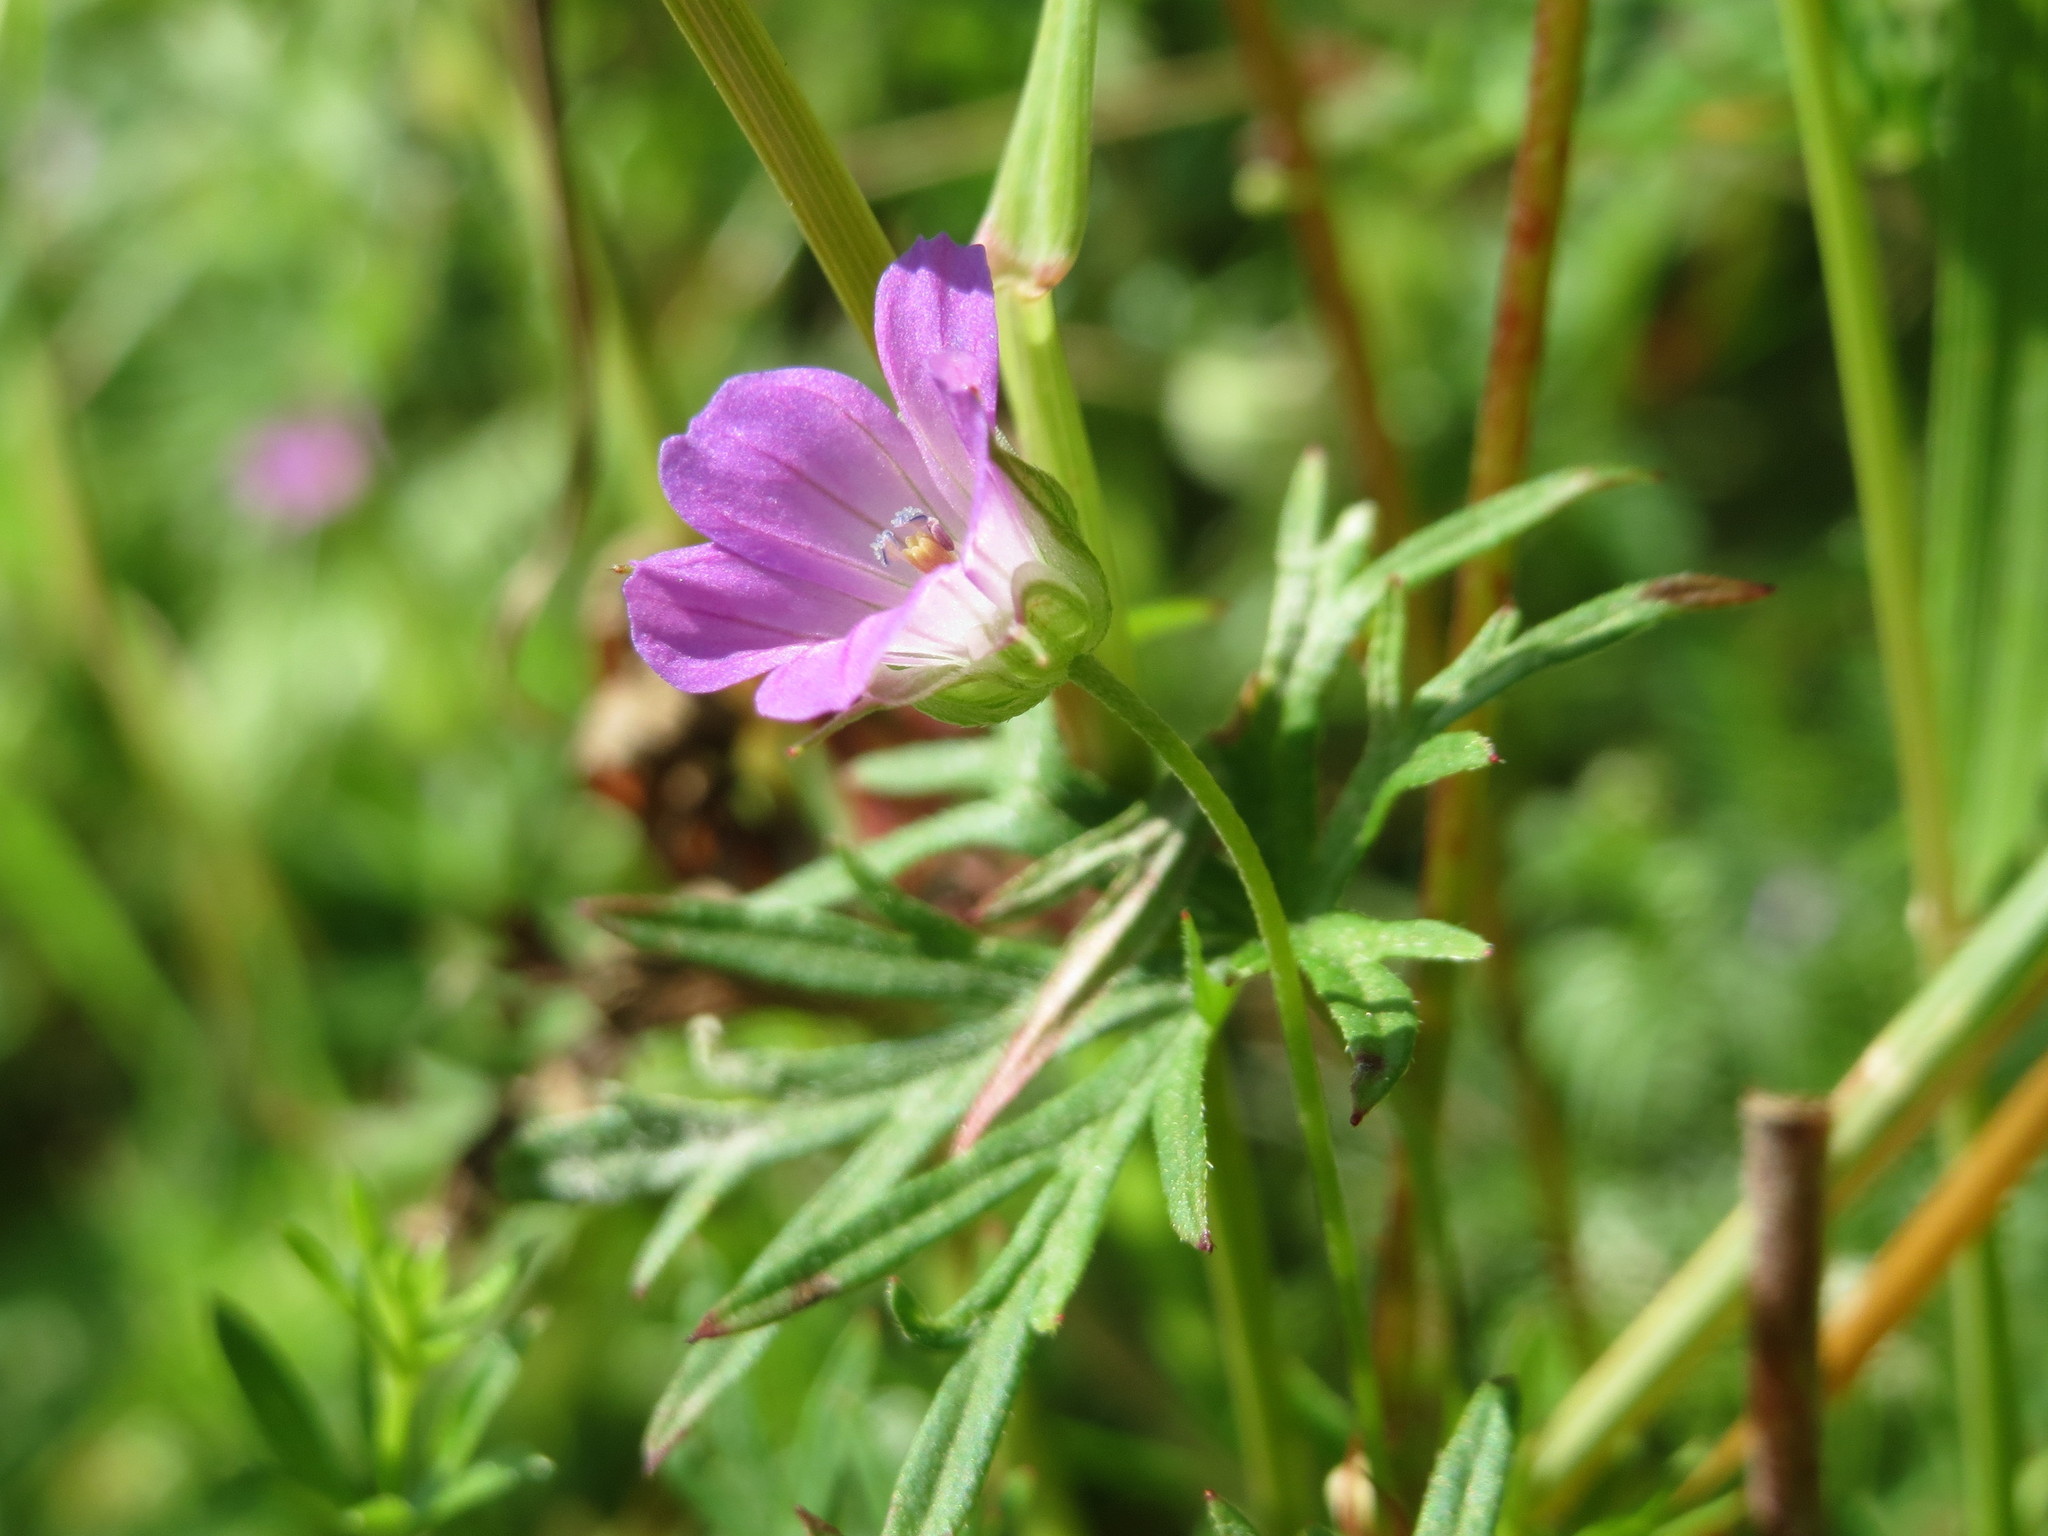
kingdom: Plantae
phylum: Tracheophyta
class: Magnoliopsida
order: Geraniales
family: Geraniaceae
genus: Geranium
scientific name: Geranium columbinum
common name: Long-stalked crane's-bill
